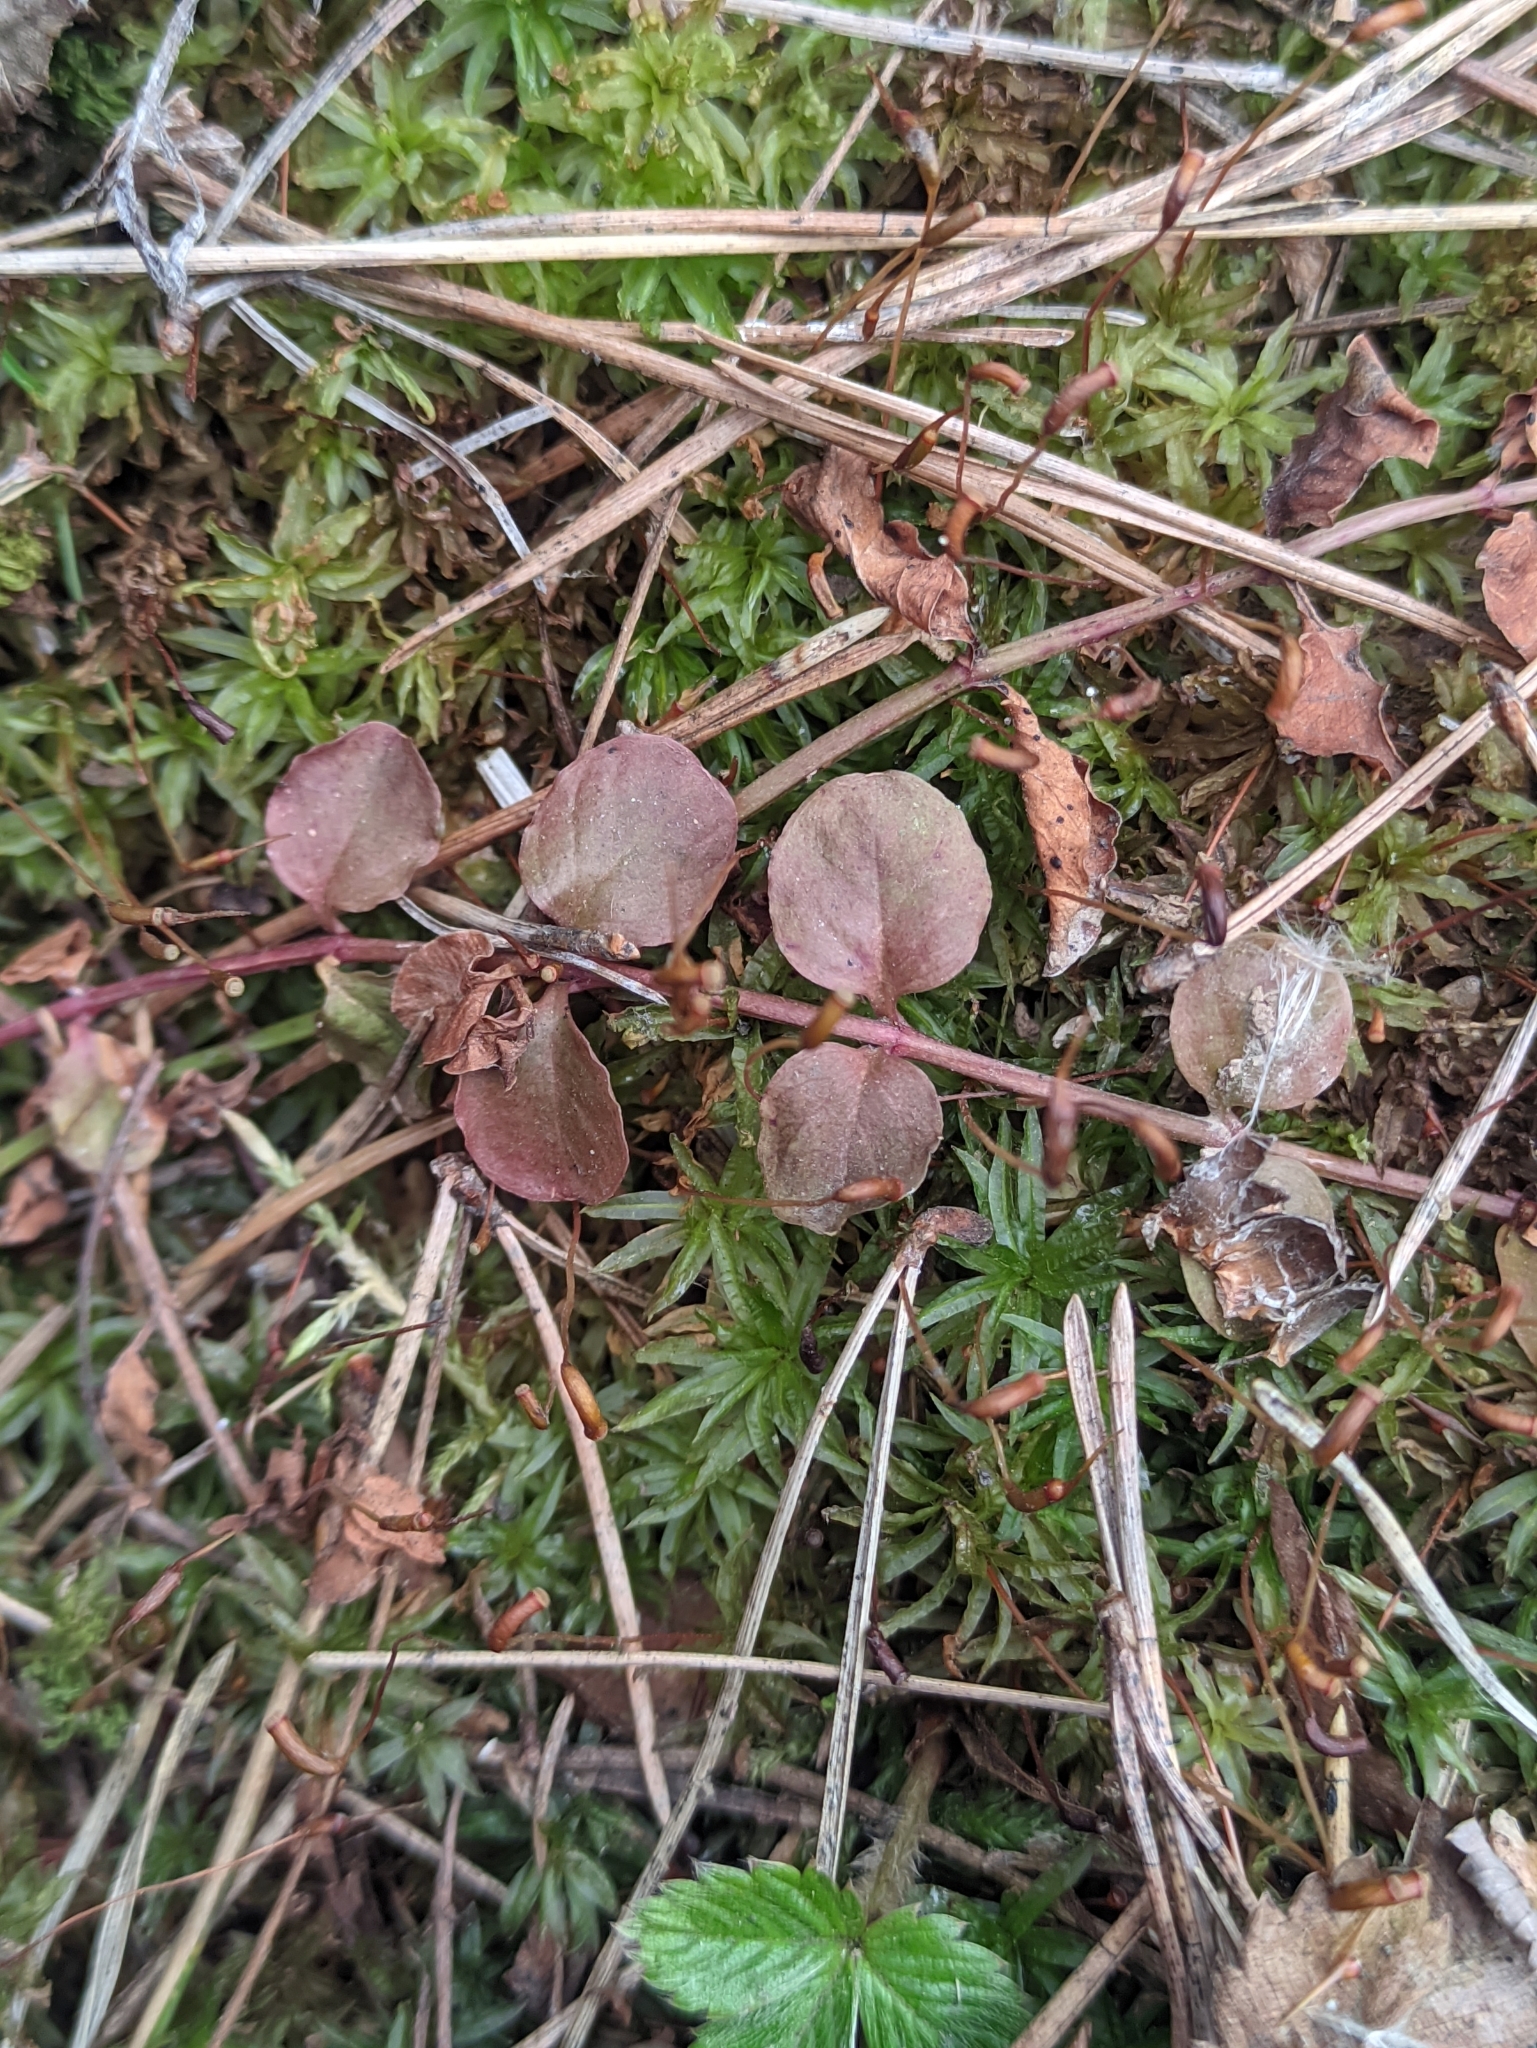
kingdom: Plantae
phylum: Tracheophyta
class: Magnoliopsida
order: Ericales
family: Primulaceae
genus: Lysimachia
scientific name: Lysimachia nummularia
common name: Moneywort
